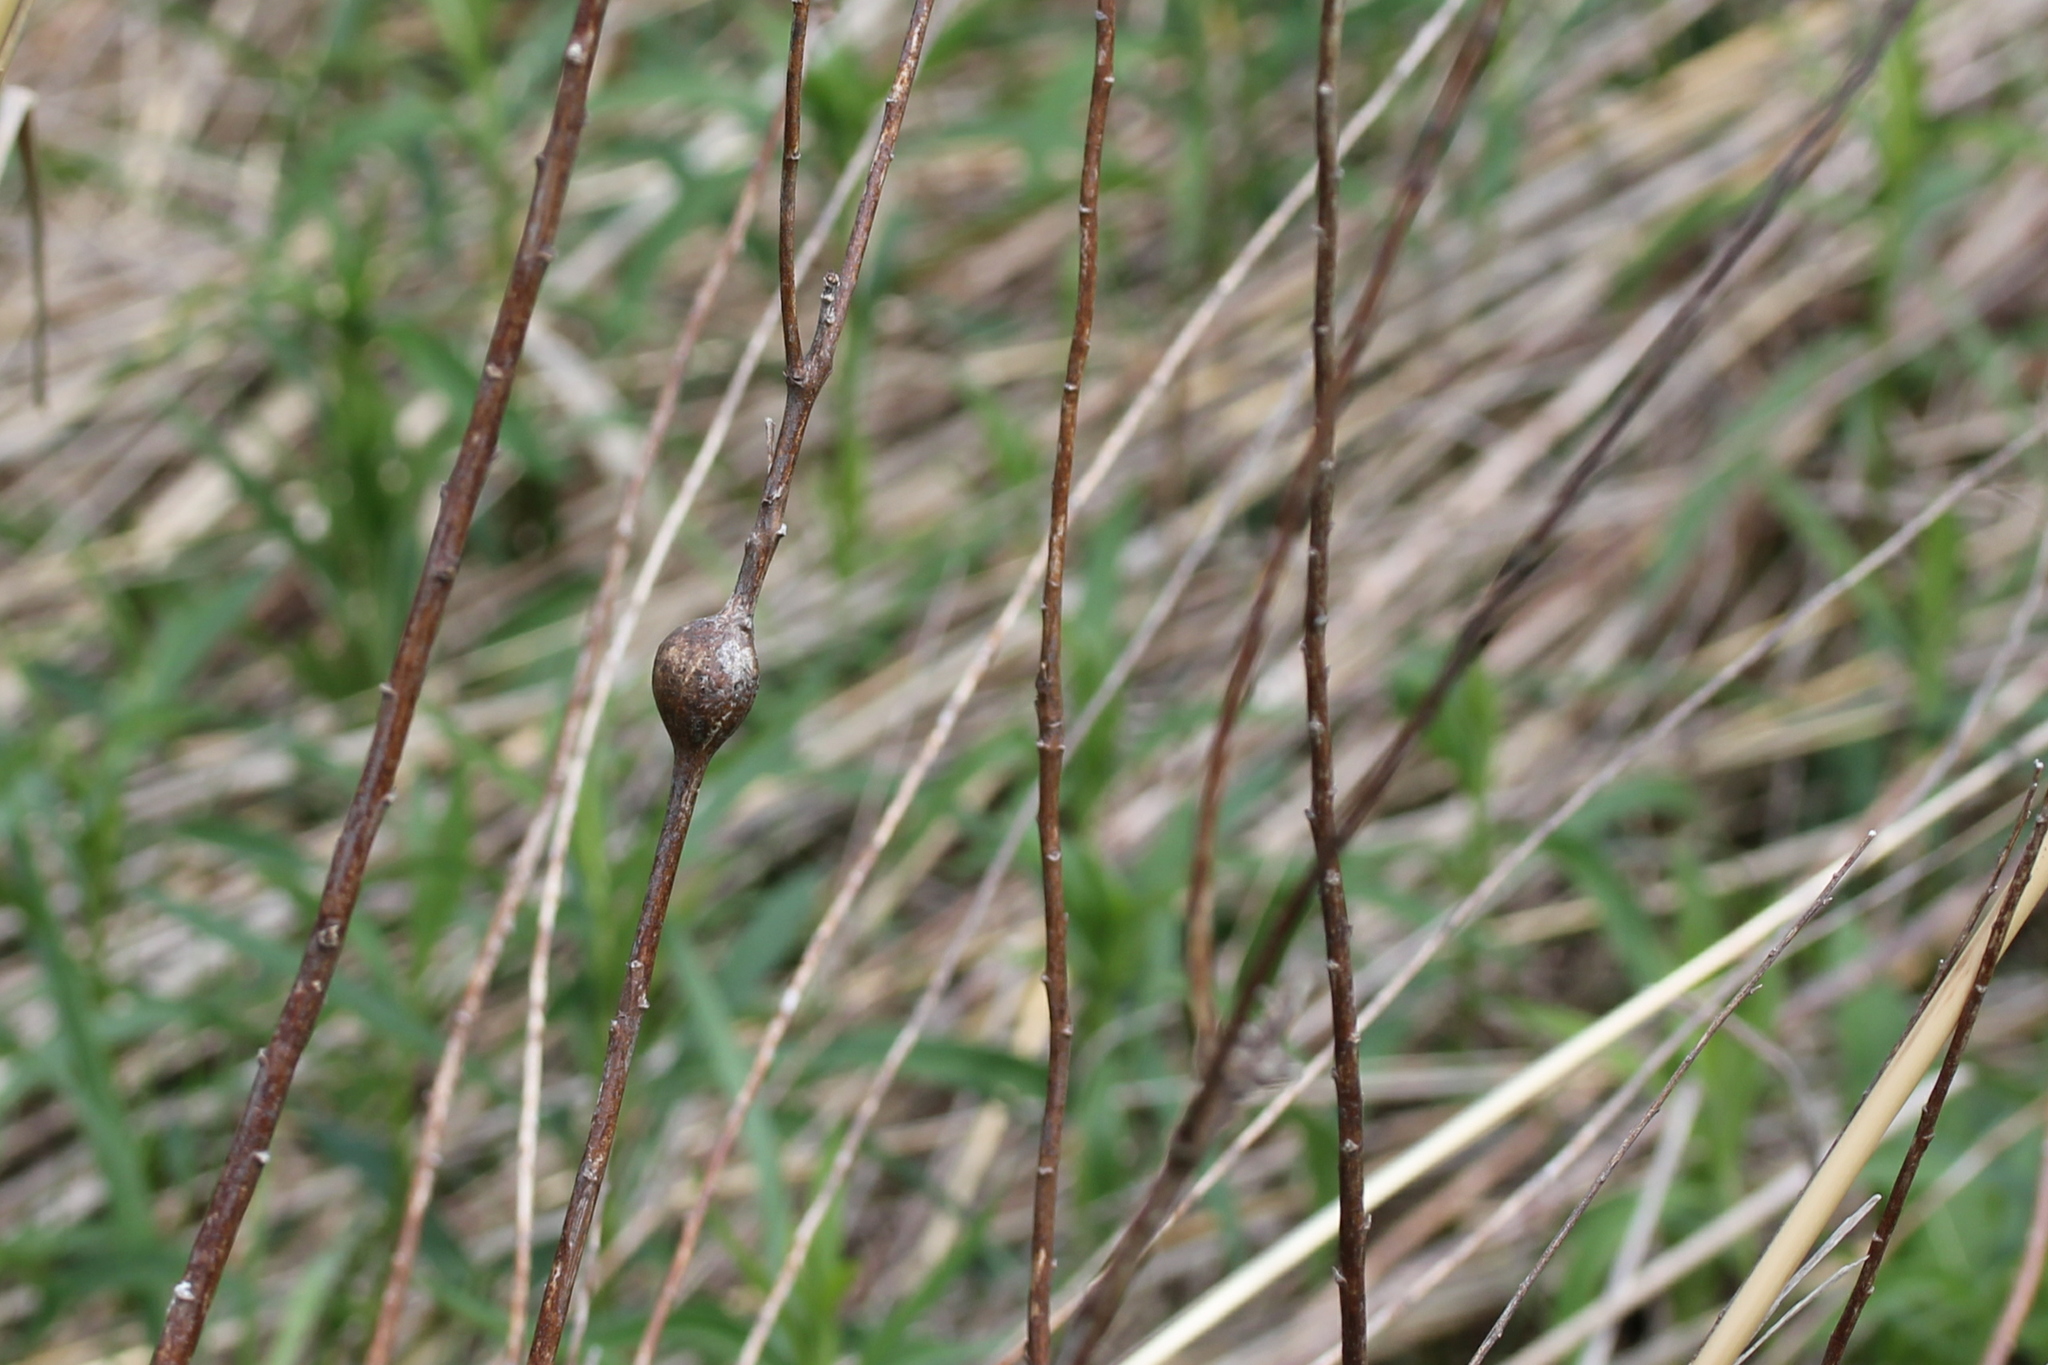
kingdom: Animalia
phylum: Arthropoda
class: Insecta
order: Diptera
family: Tephritidae
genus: Eurosta
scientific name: Eurosta solidaginis
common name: Goldenrod gall fly
